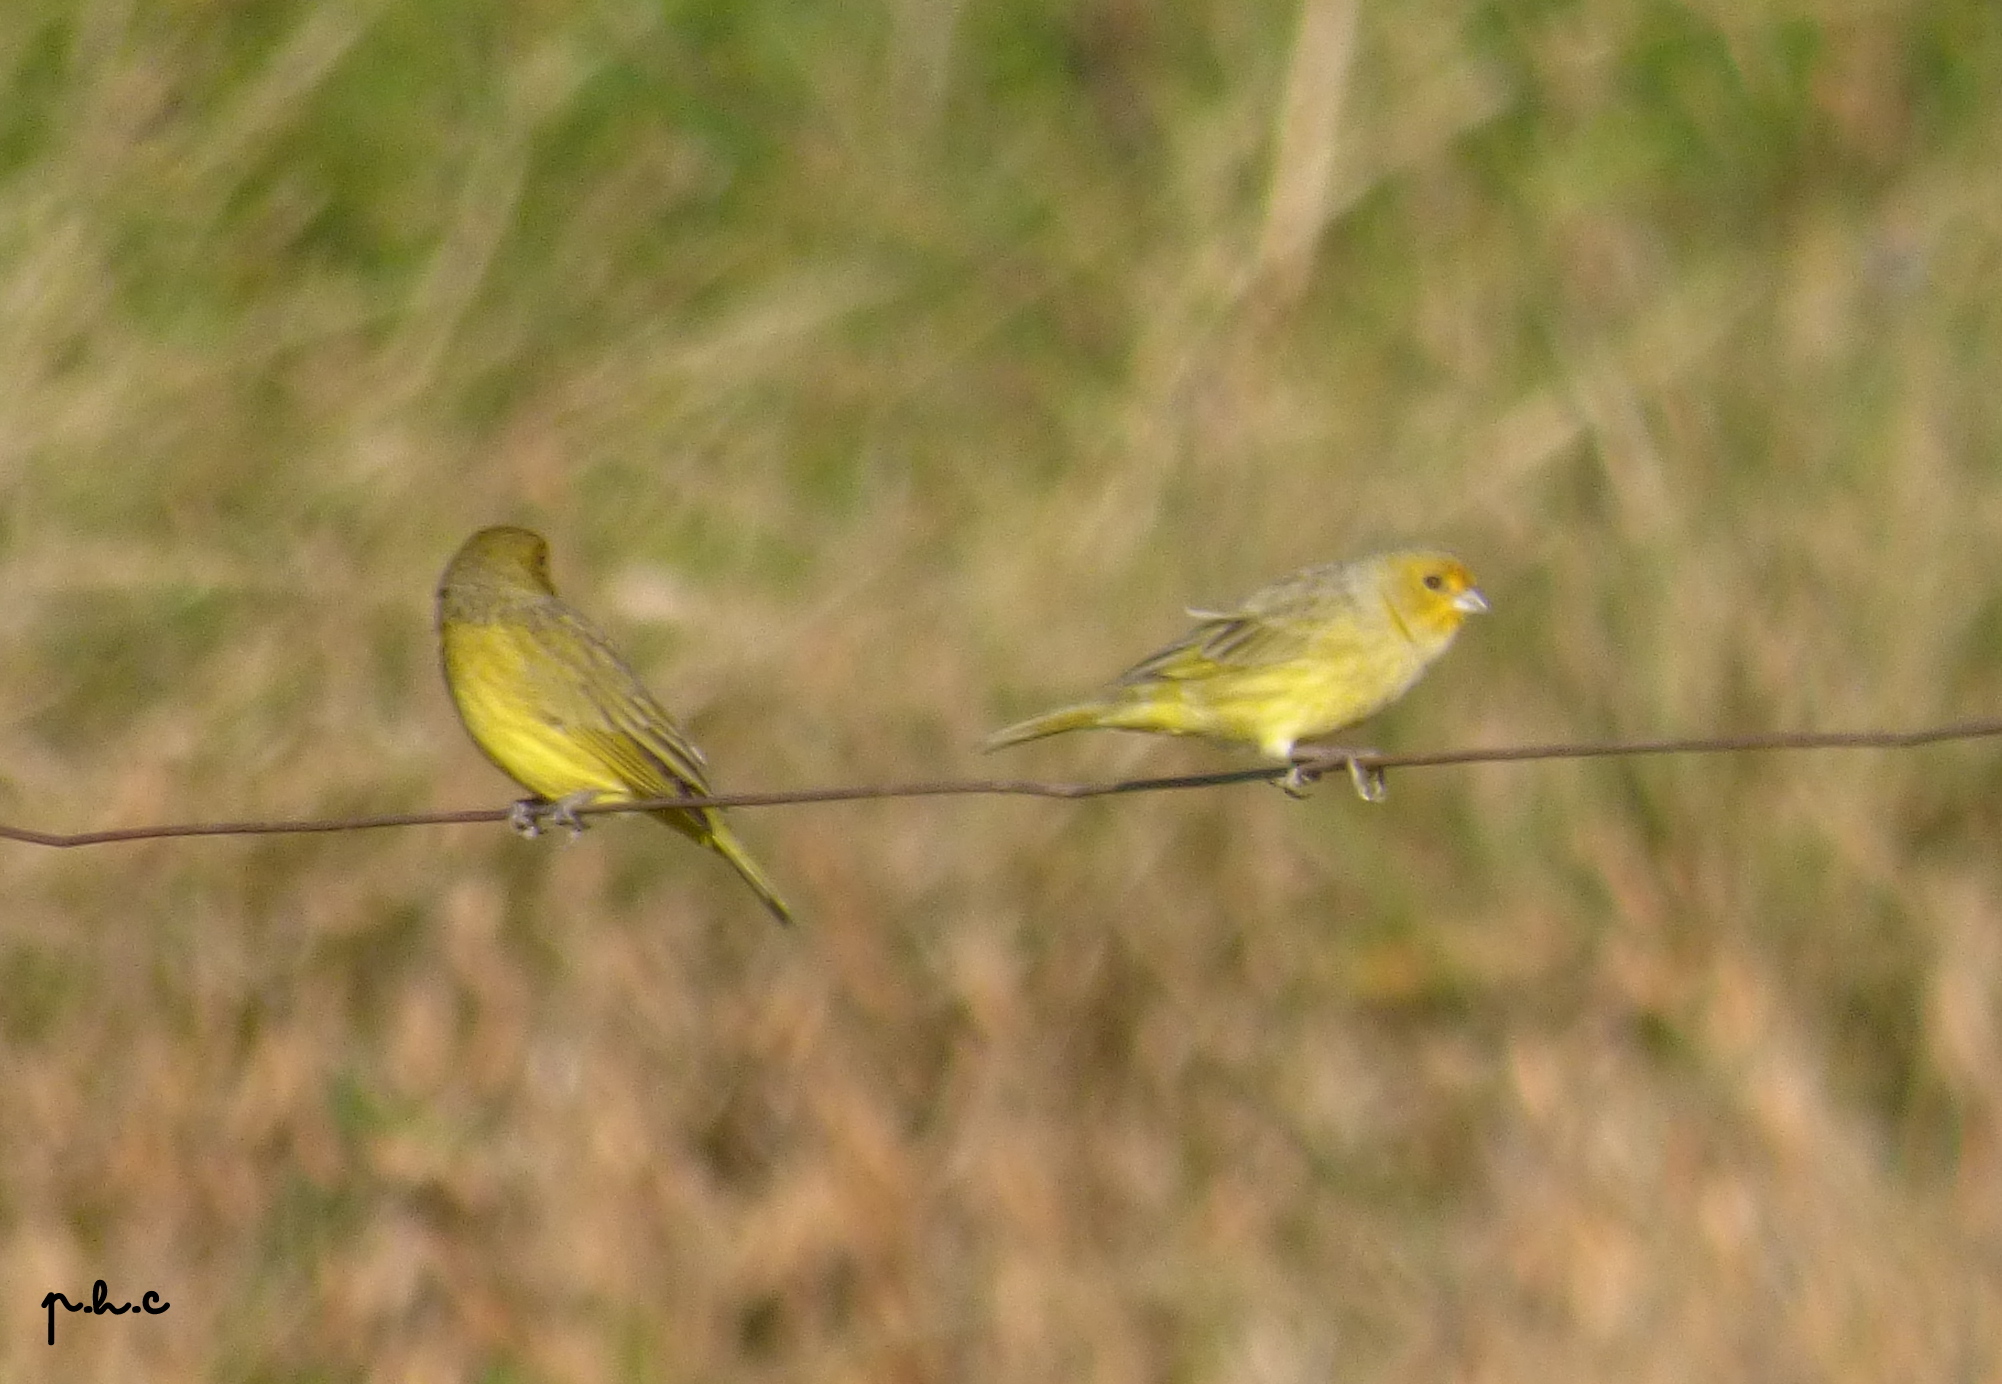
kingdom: Animalia
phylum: Chordata
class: Aves
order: Passeriformes
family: Thraupidae
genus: Sicalis
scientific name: Sicalis flaveola
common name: Saffron finch
